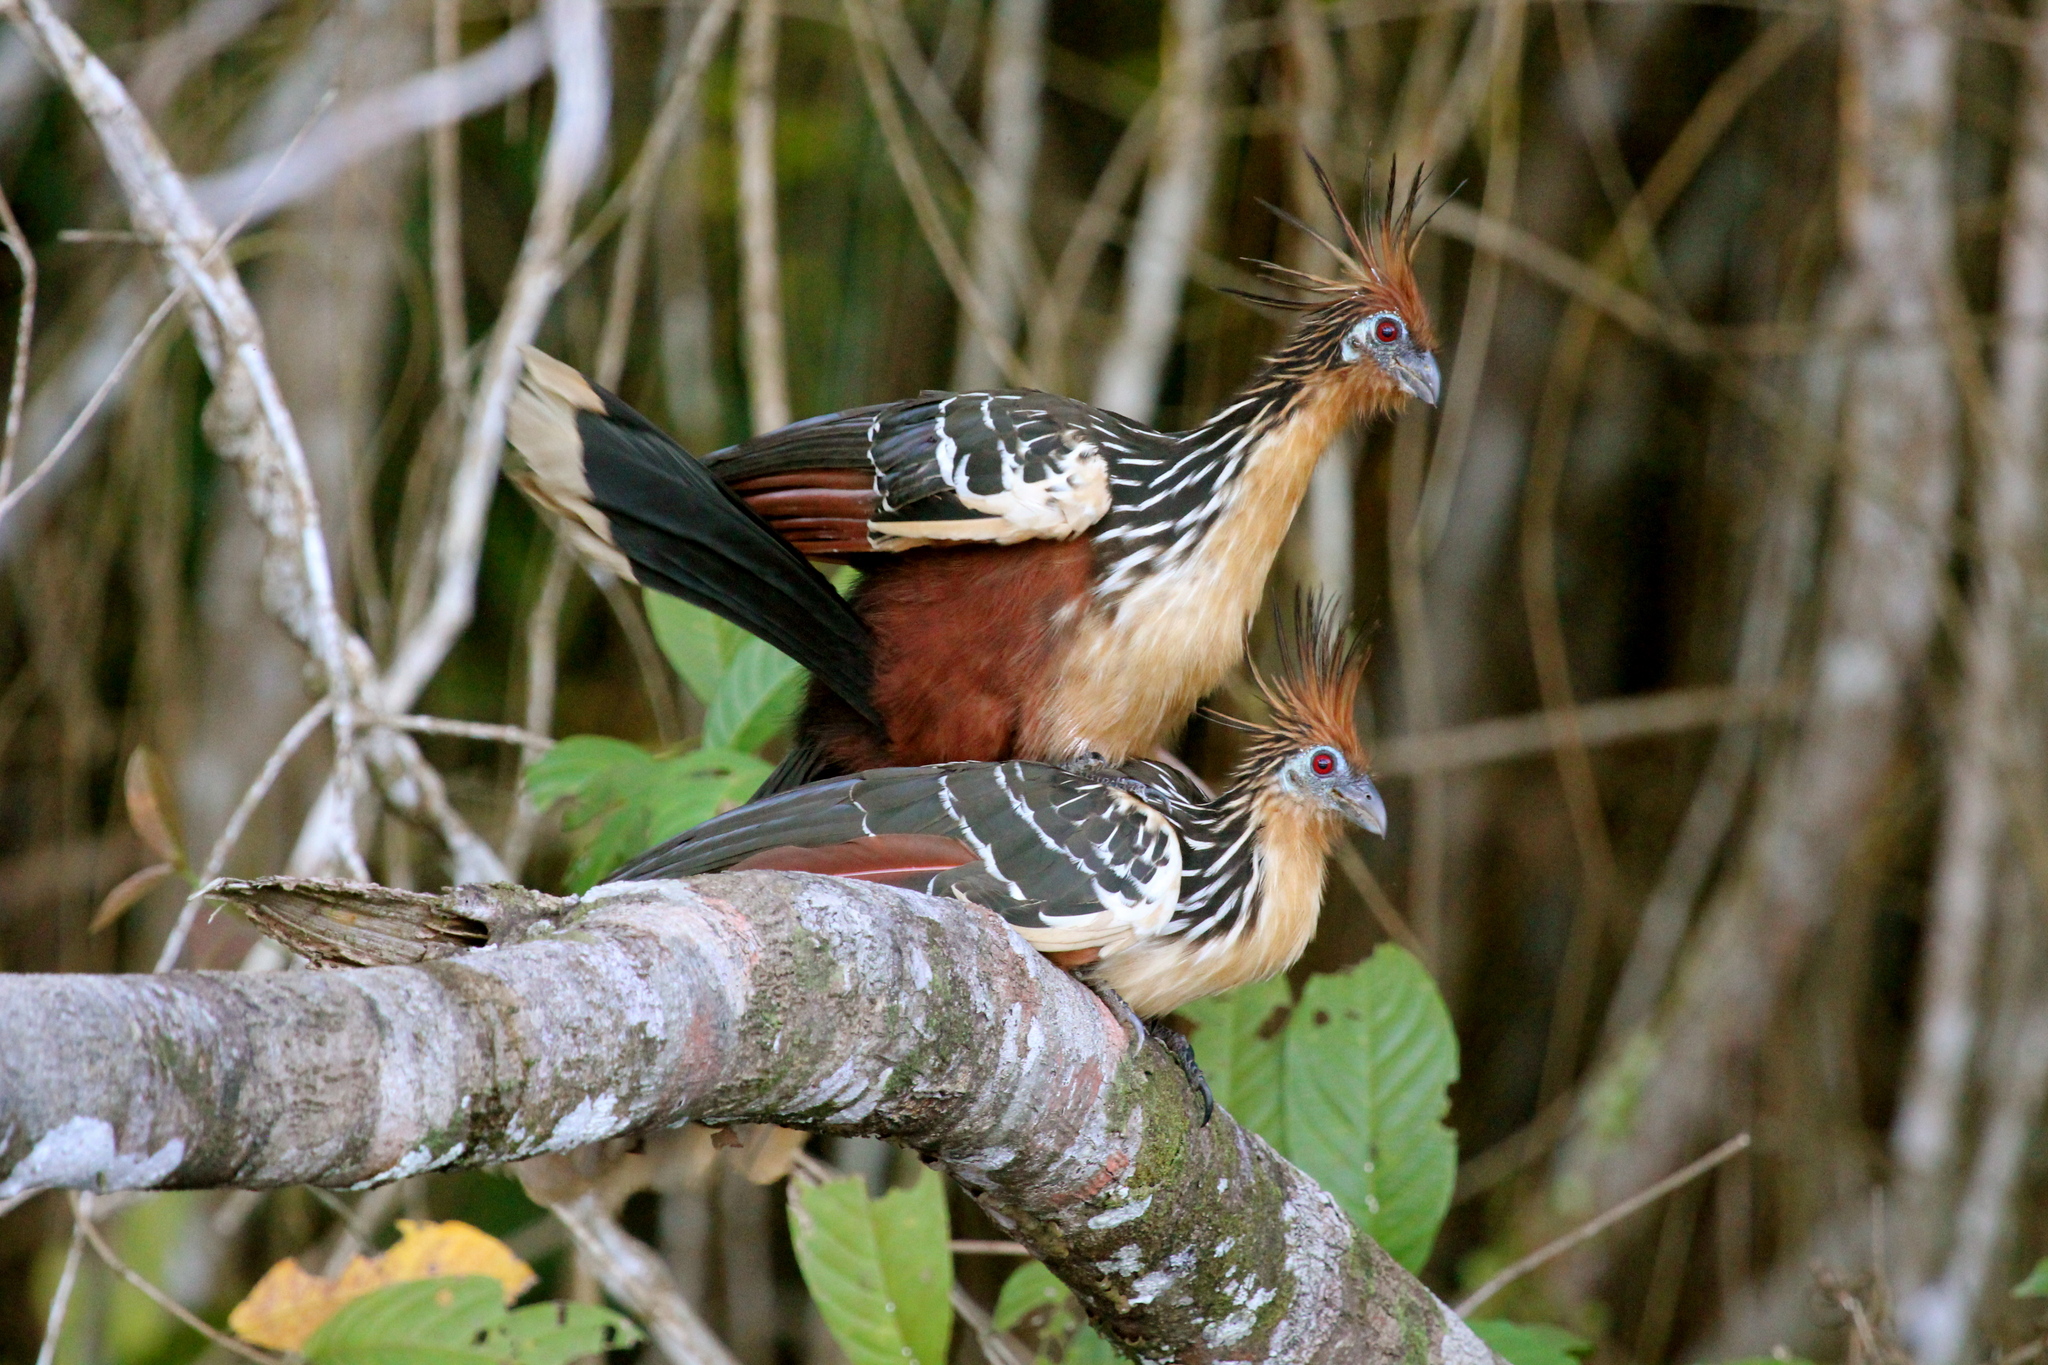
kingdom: Animalia
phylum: Chordata
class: Aves
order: Opisthocomiformes
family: Opisthocomidae
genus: Opisthocomus
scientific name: Opisthocomus hoazin
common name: Hoatzin
